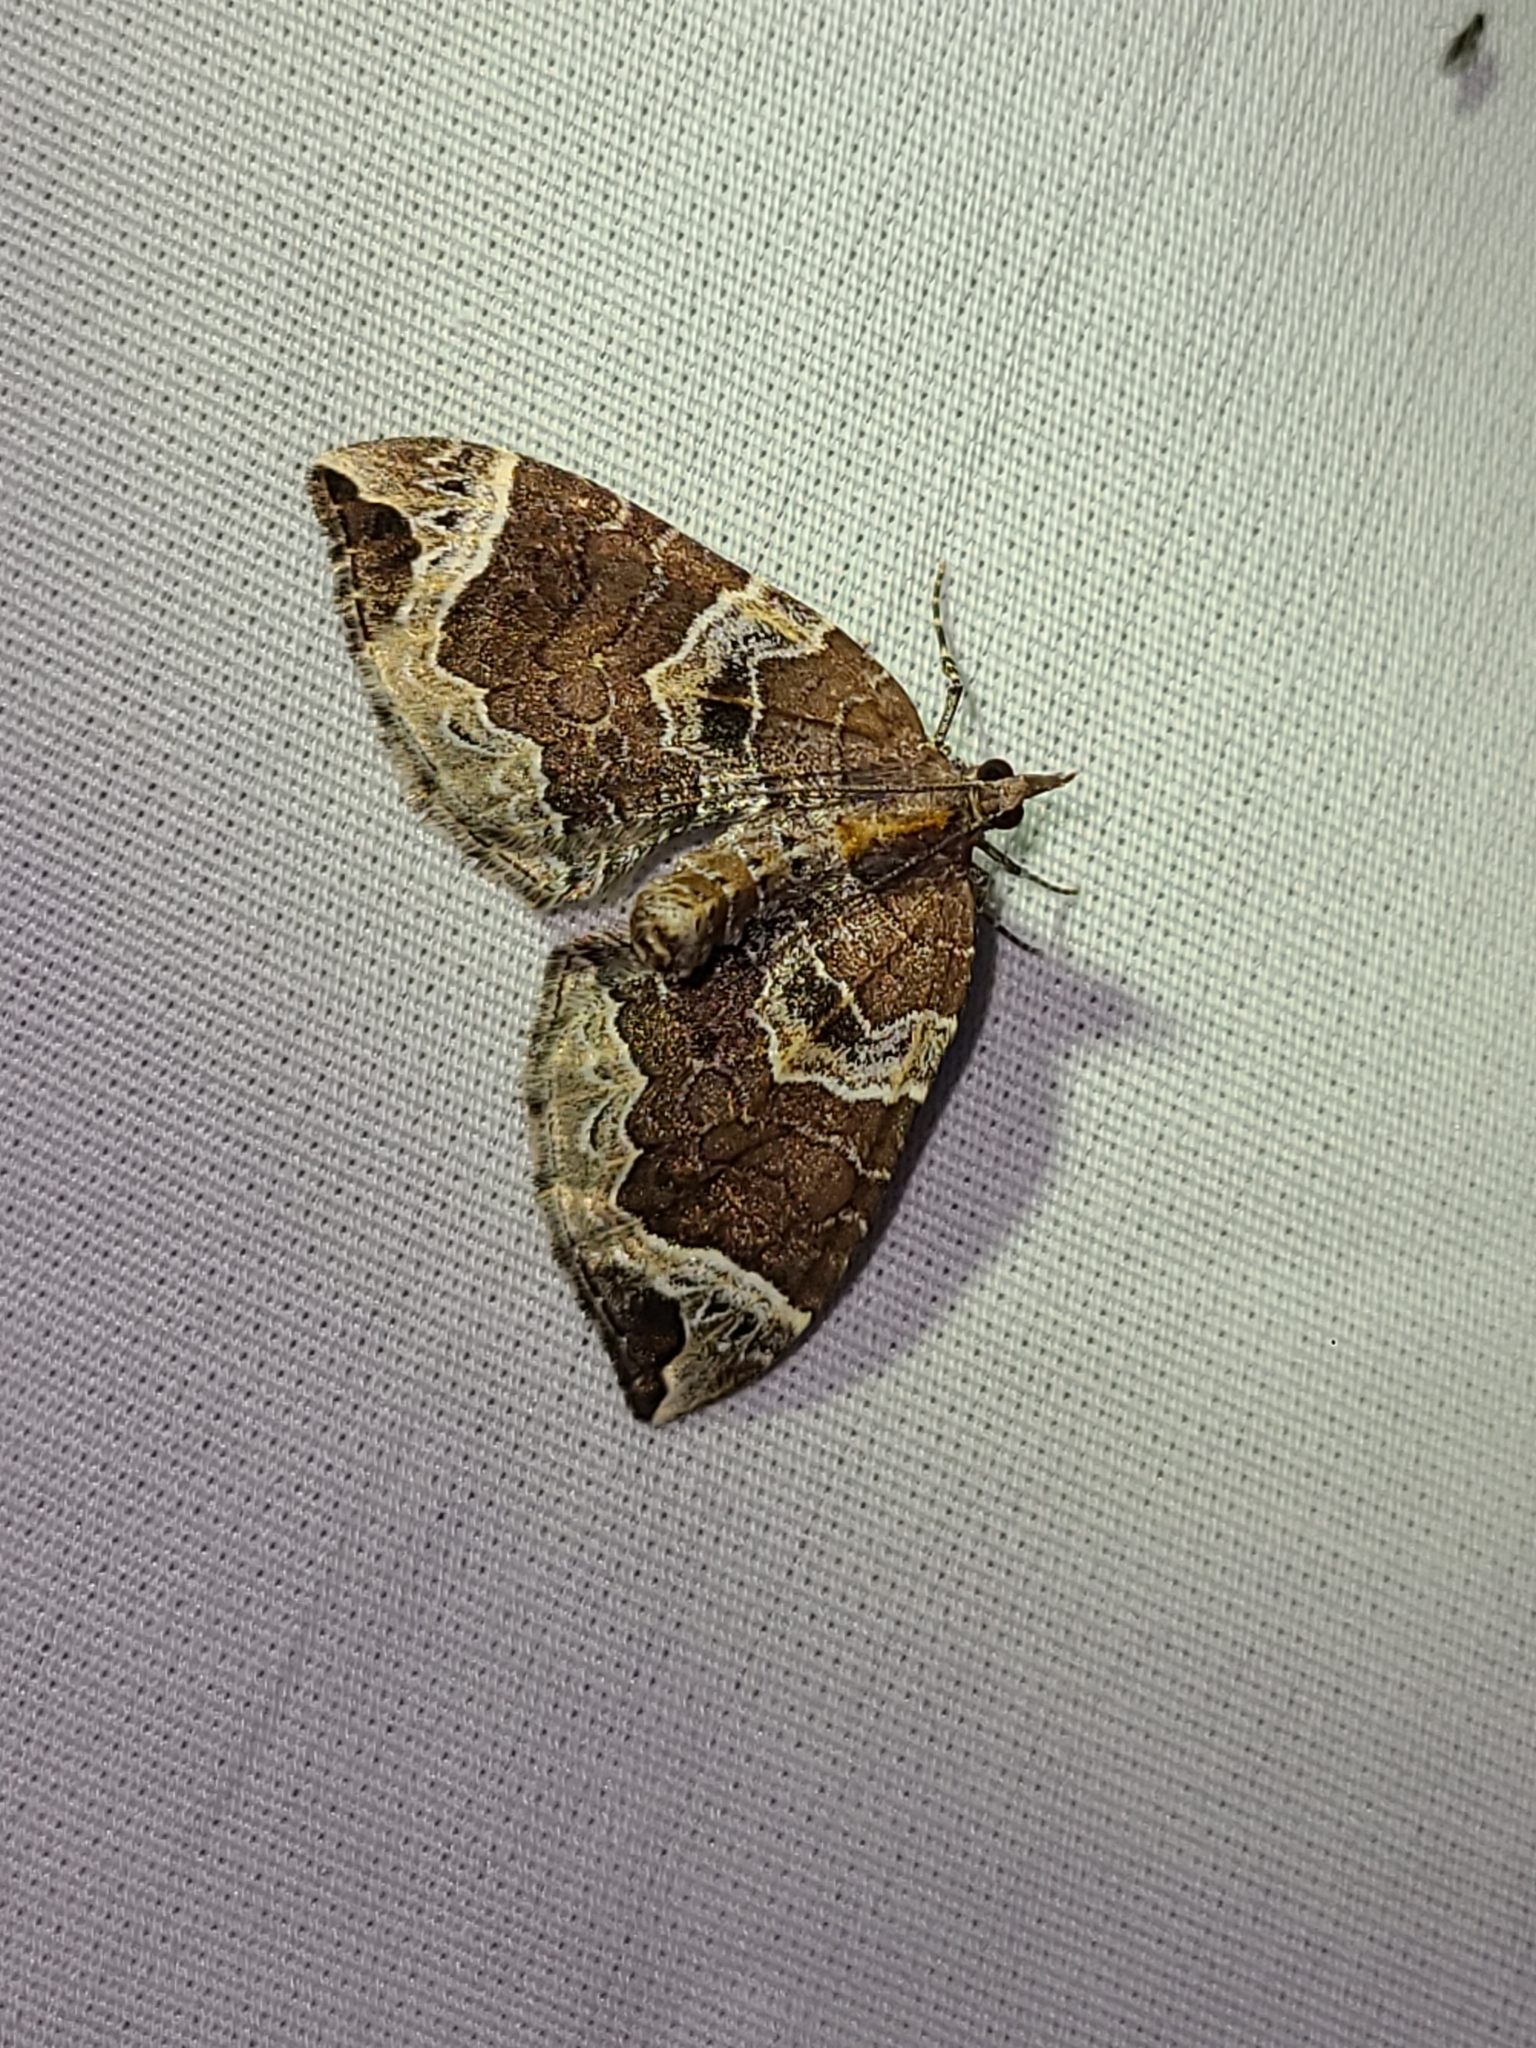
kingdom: Animalia
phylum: Arthropoda
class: Insecta
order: Lepidoptera
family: Geometridae
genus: Eulithis
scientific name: Eulithis xylina
